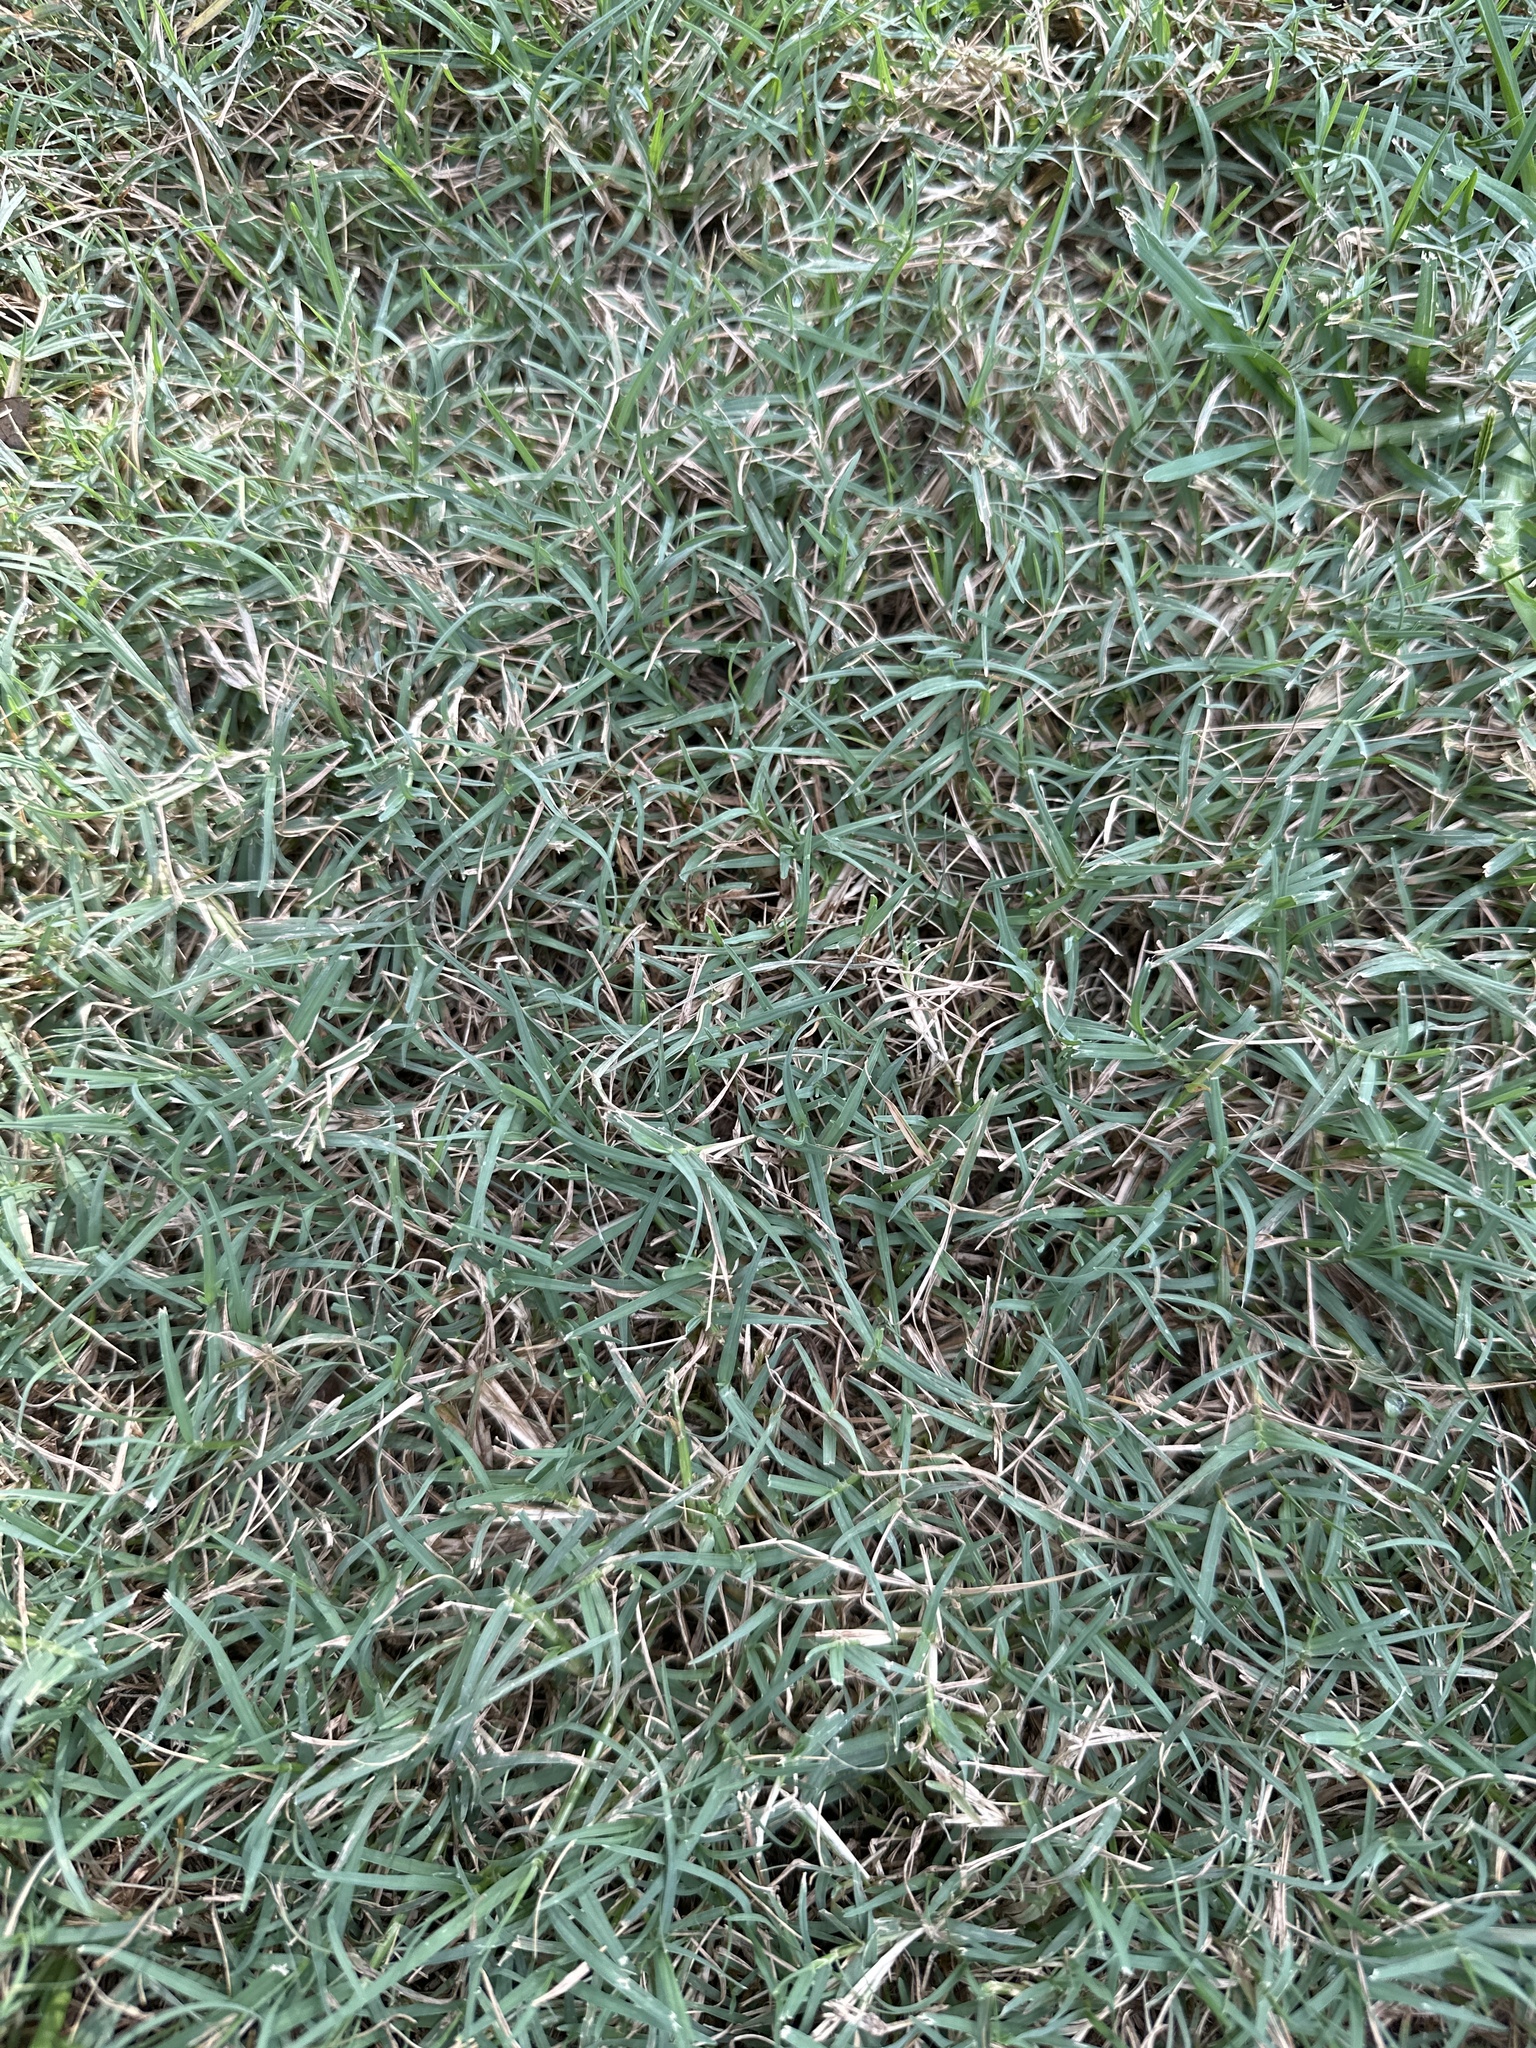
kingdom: Plantae
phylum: Tracheophyta
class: Liliopsida
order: Poales
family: Poaceae
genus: Cynodon
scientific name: Cynodon dactylon
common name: Bermuda grass
